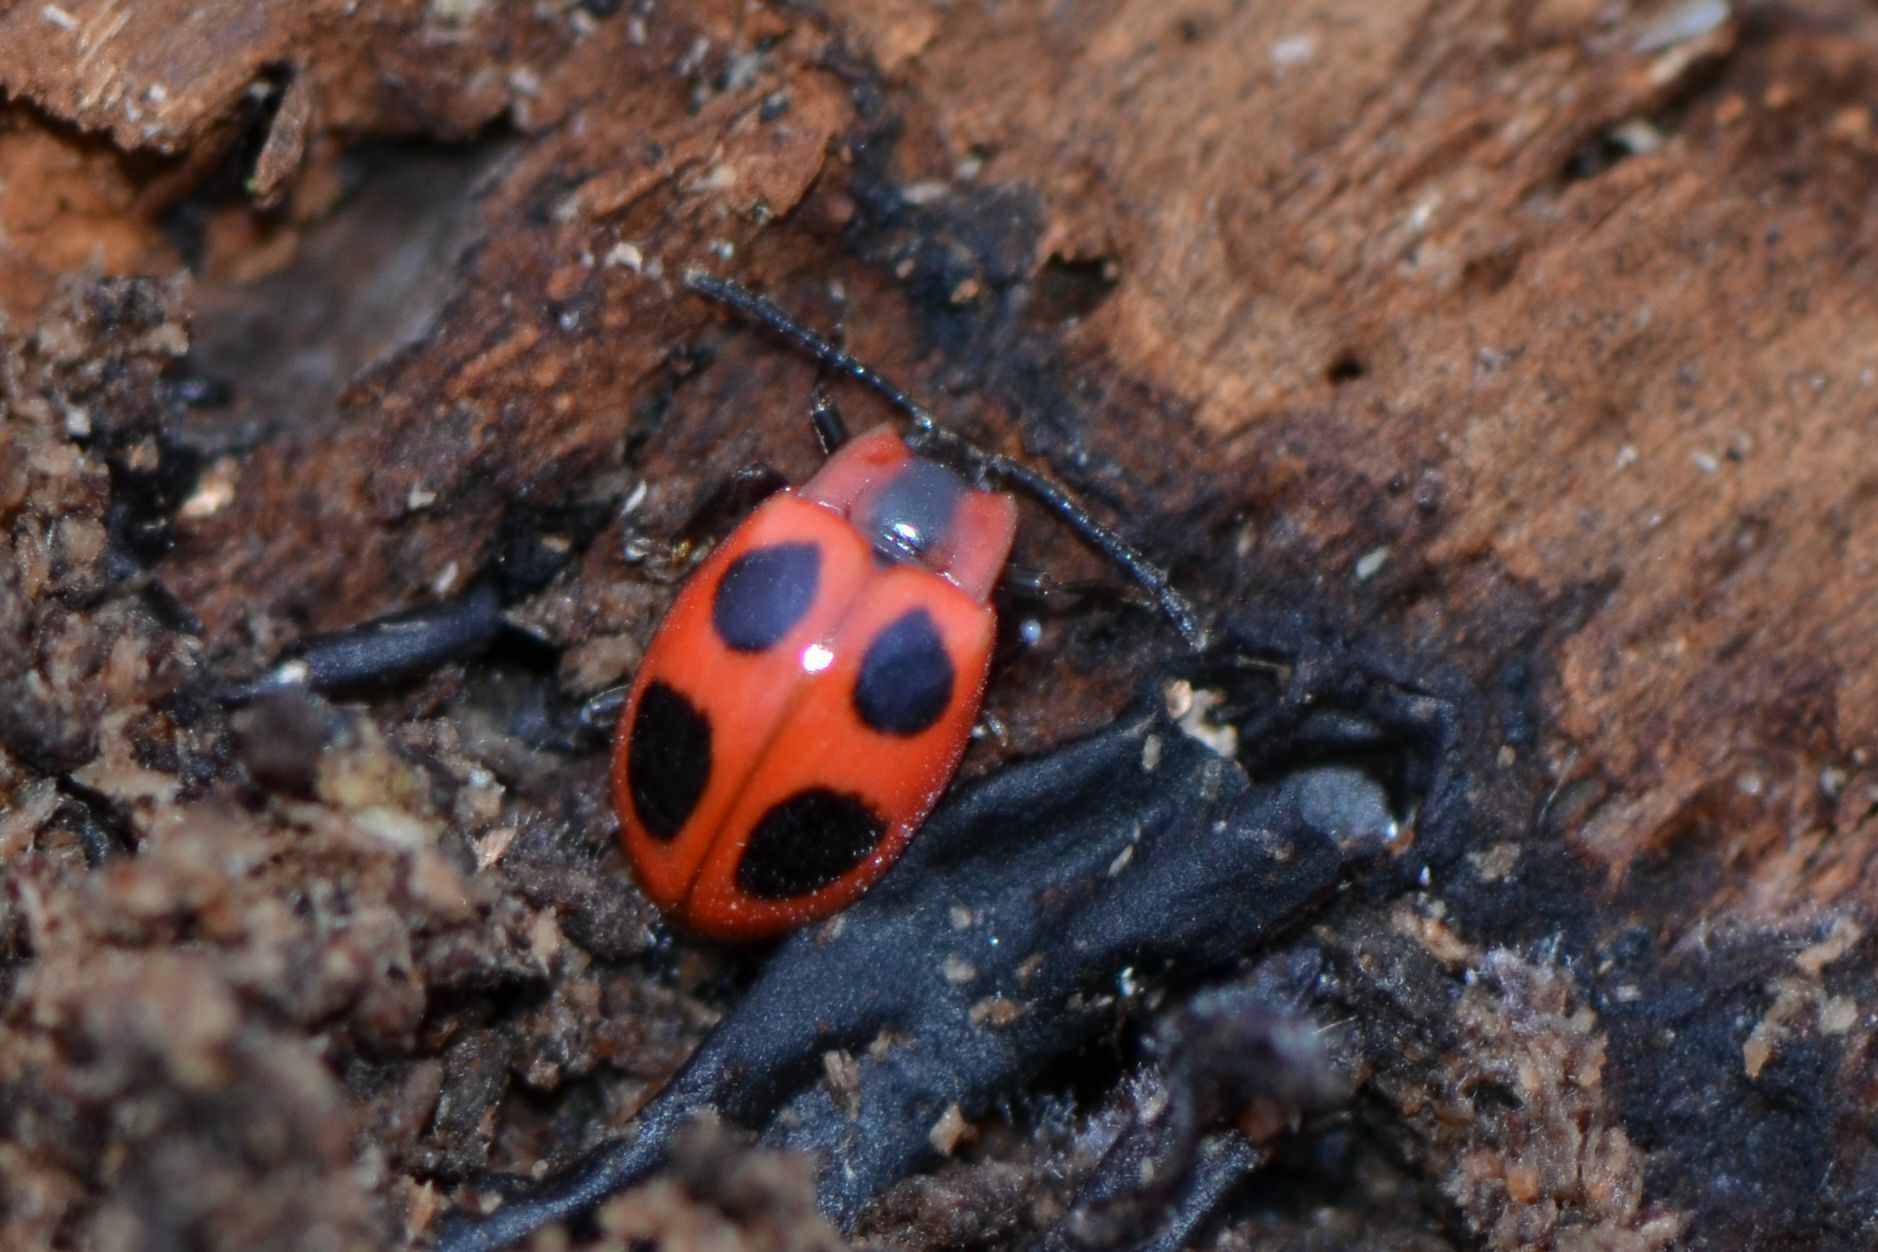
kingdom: Animalia
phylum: Arthropoda
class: Insecta
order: Coleoptera
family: Endomychidae
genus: Endomychus
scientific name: Endomychus coccineus
